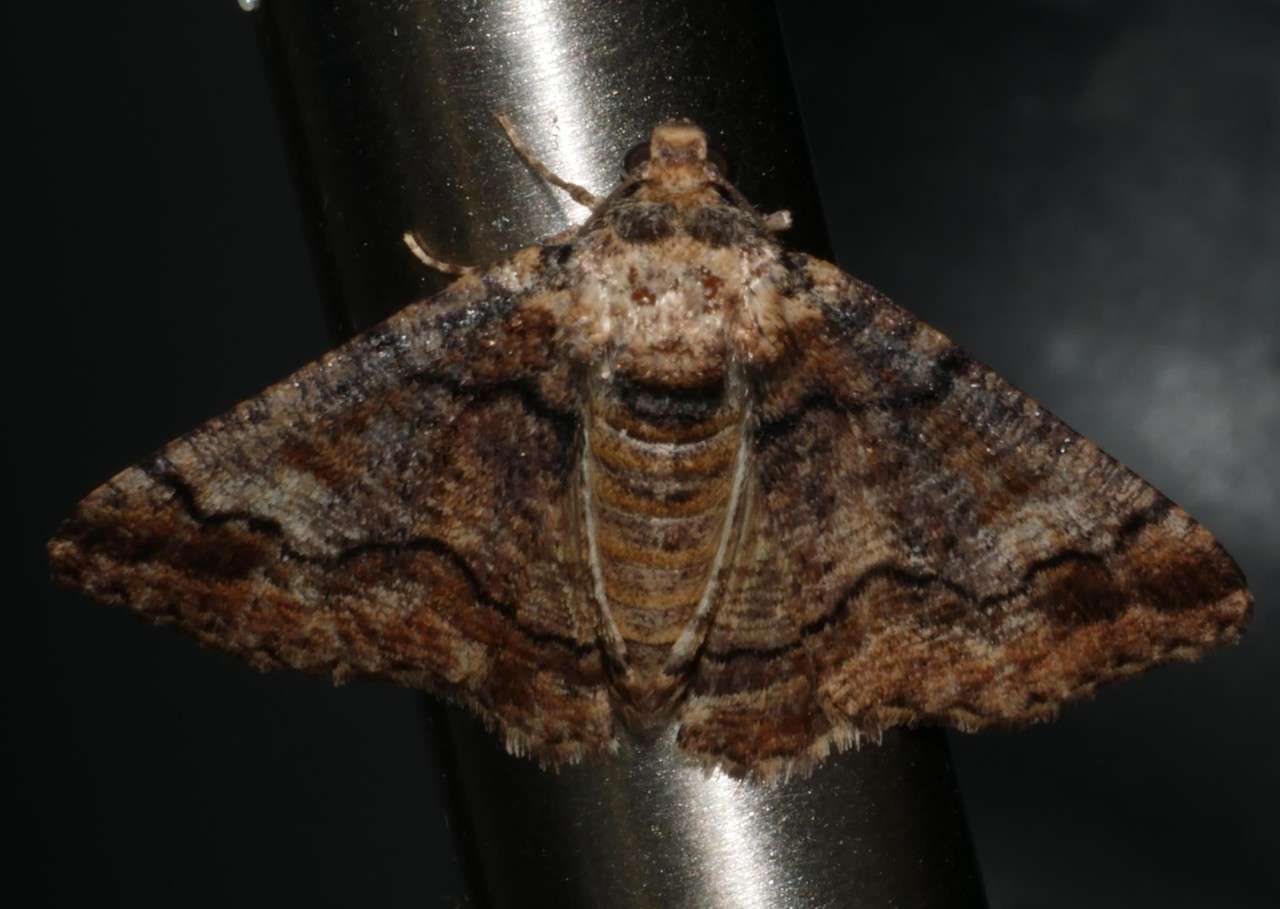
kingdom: Animalia
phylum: Arthropoda
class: Insecta
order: Lepidoptera
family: Geometridae
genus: Cryphaea
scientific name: Cryphaea xylina
